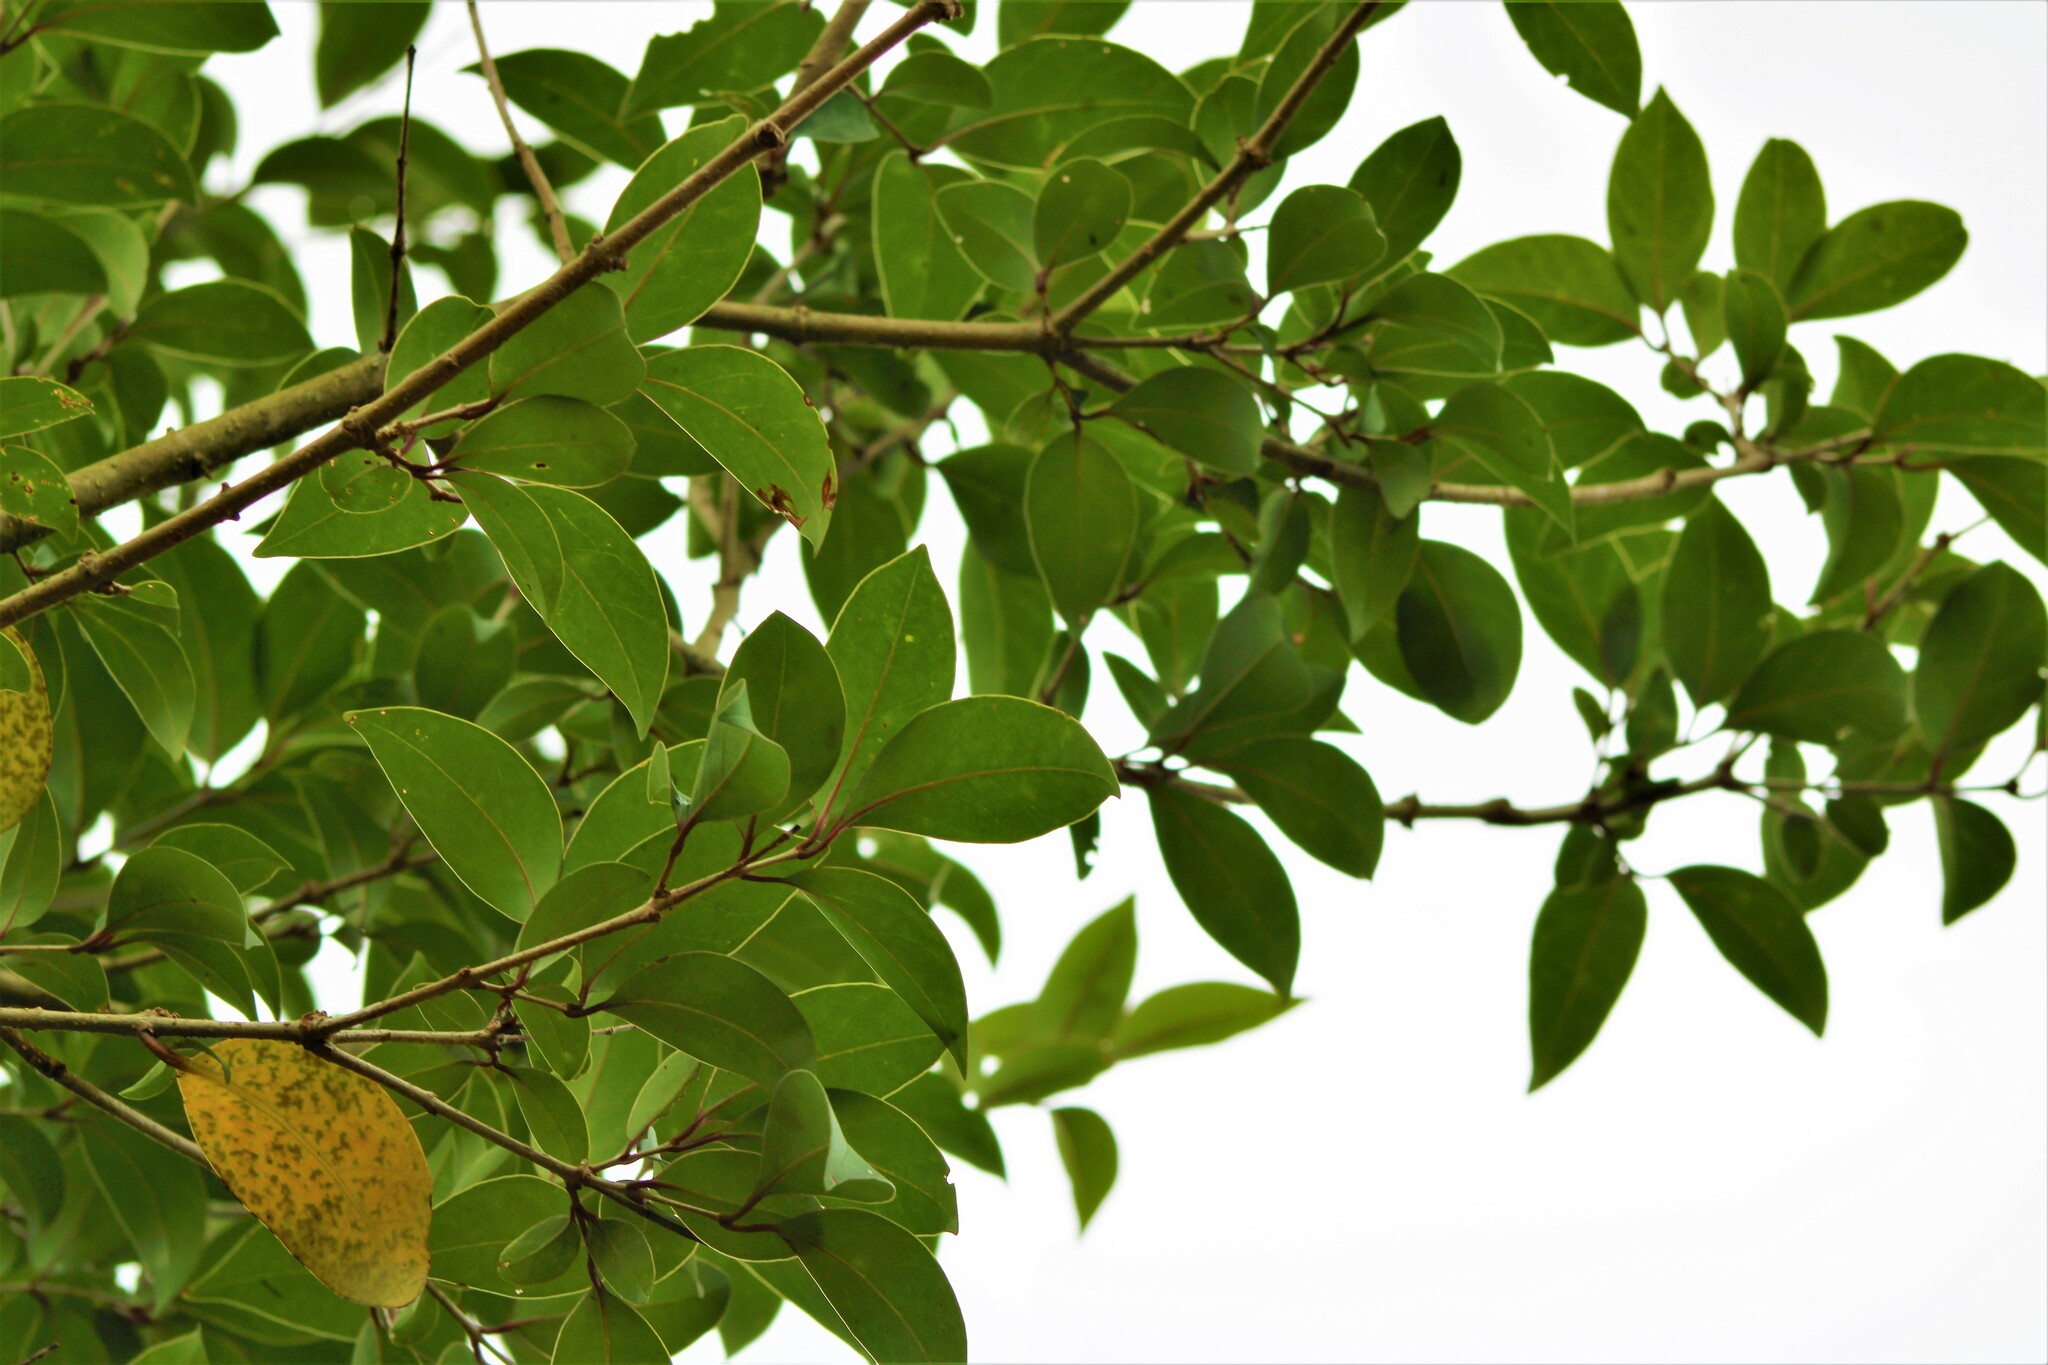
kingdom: Plantae
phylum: Tracheophyta
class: Magnoliopsida
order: Ericales
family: Primulaceae
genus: Myrsine
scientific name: Myrsine lorentziana
